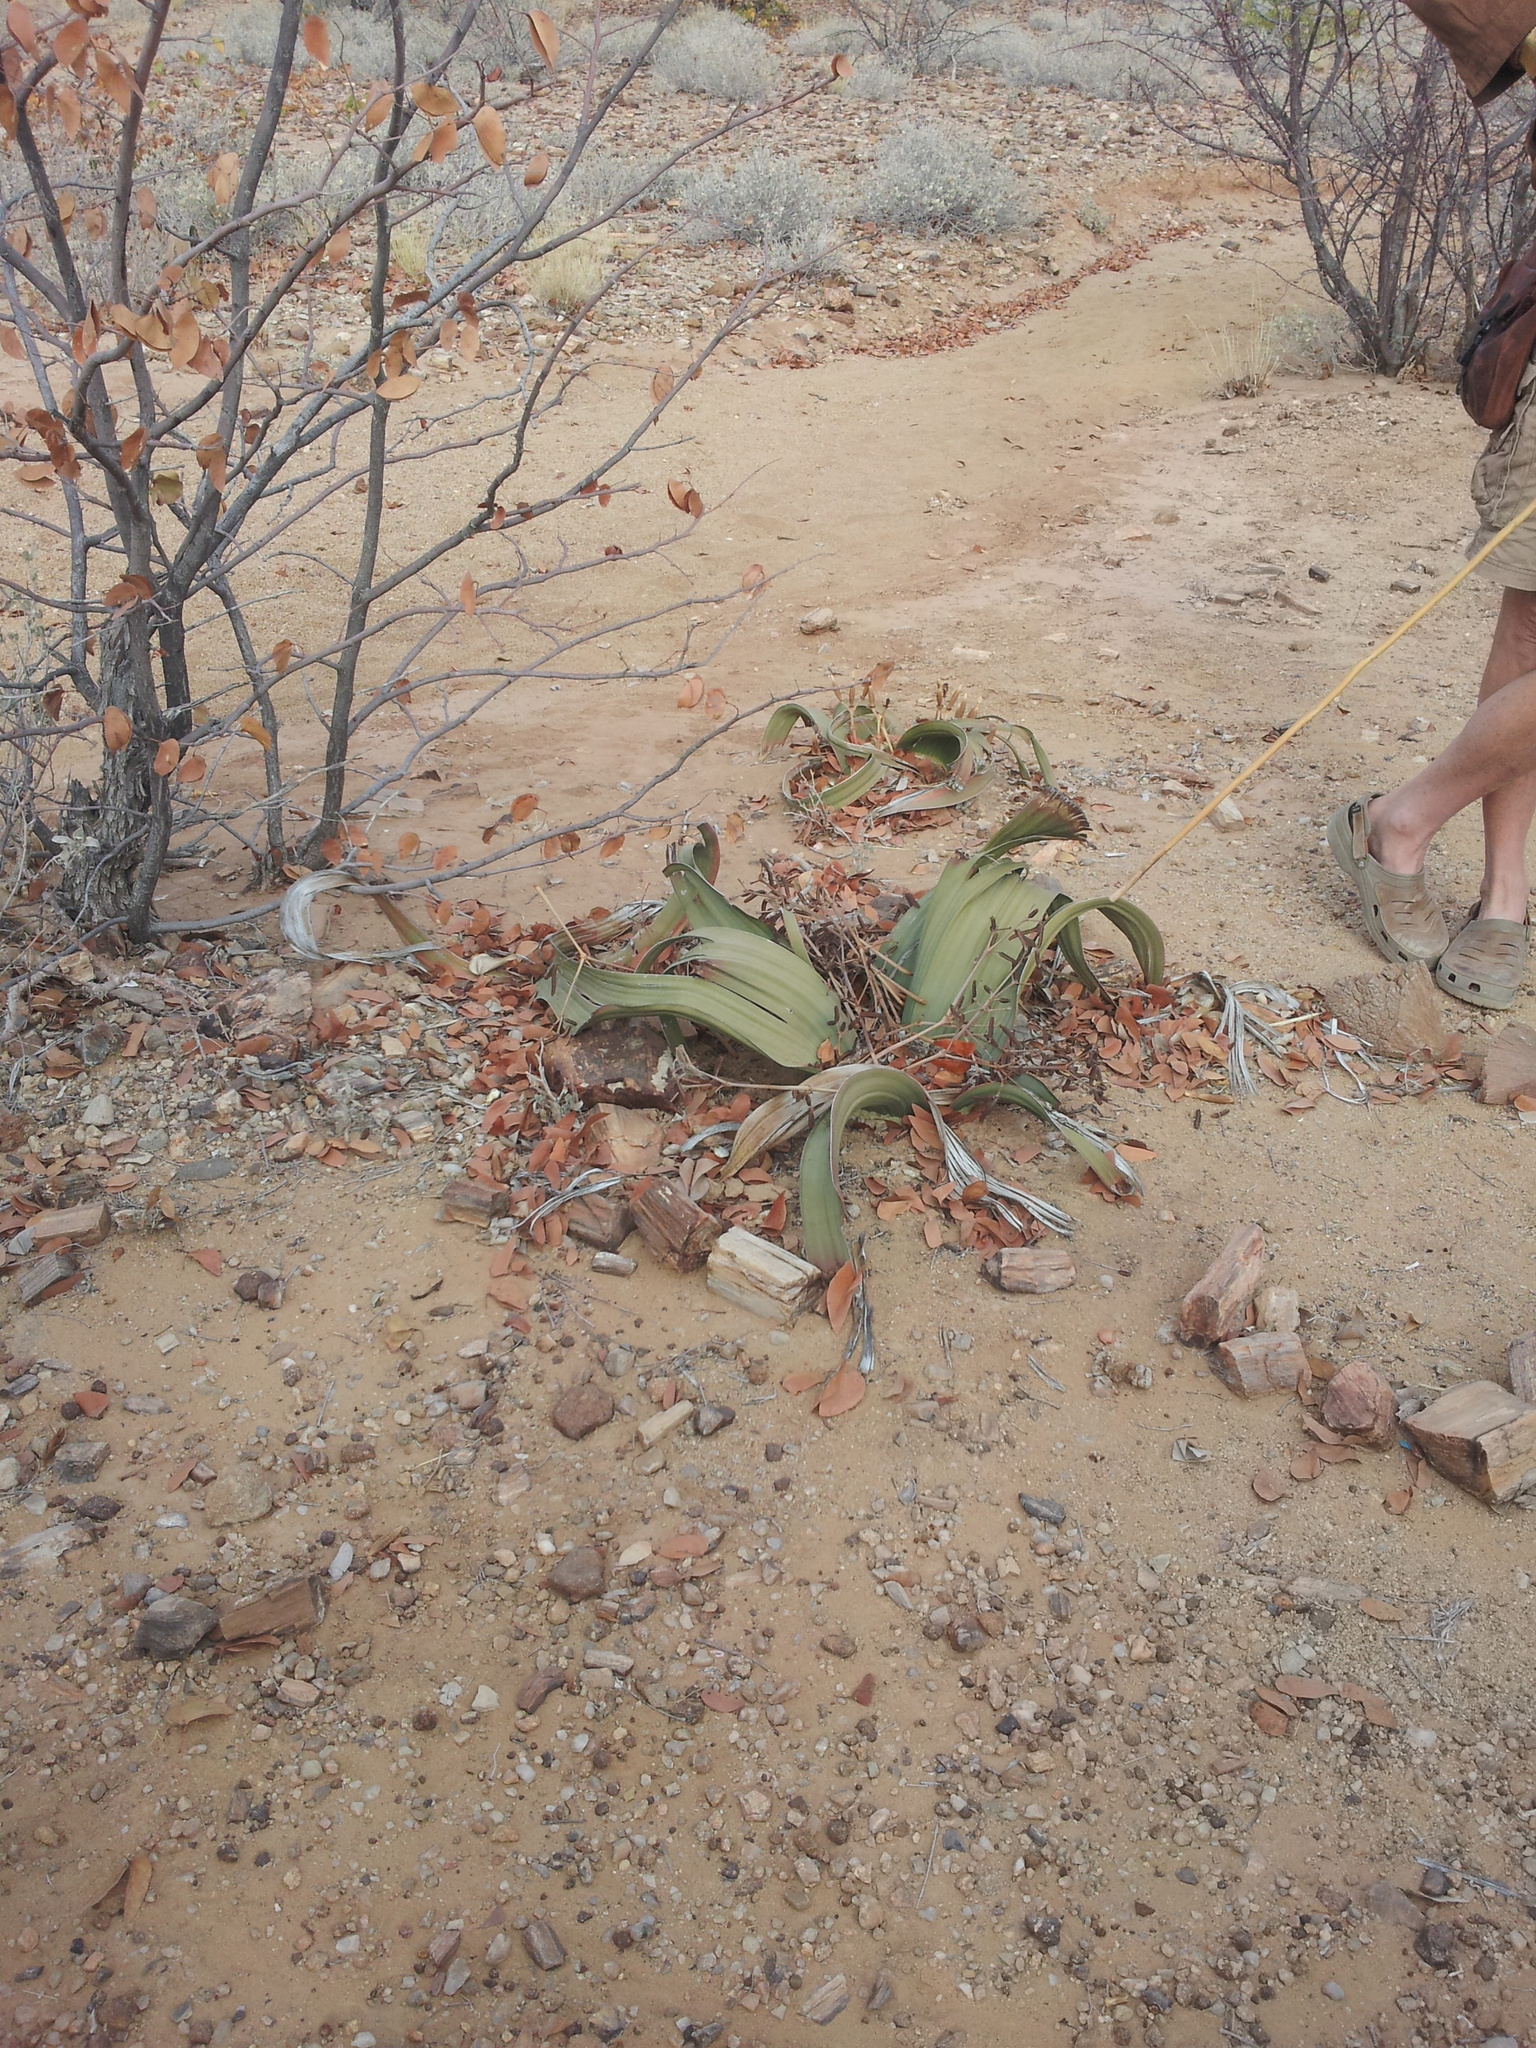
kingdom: Plantae
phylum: Tracheophyta
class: Gnetopsida
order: Welwitschiales
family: Welwitschiaceae
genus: Welwitschia
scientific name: Welwitschia mirabilis
